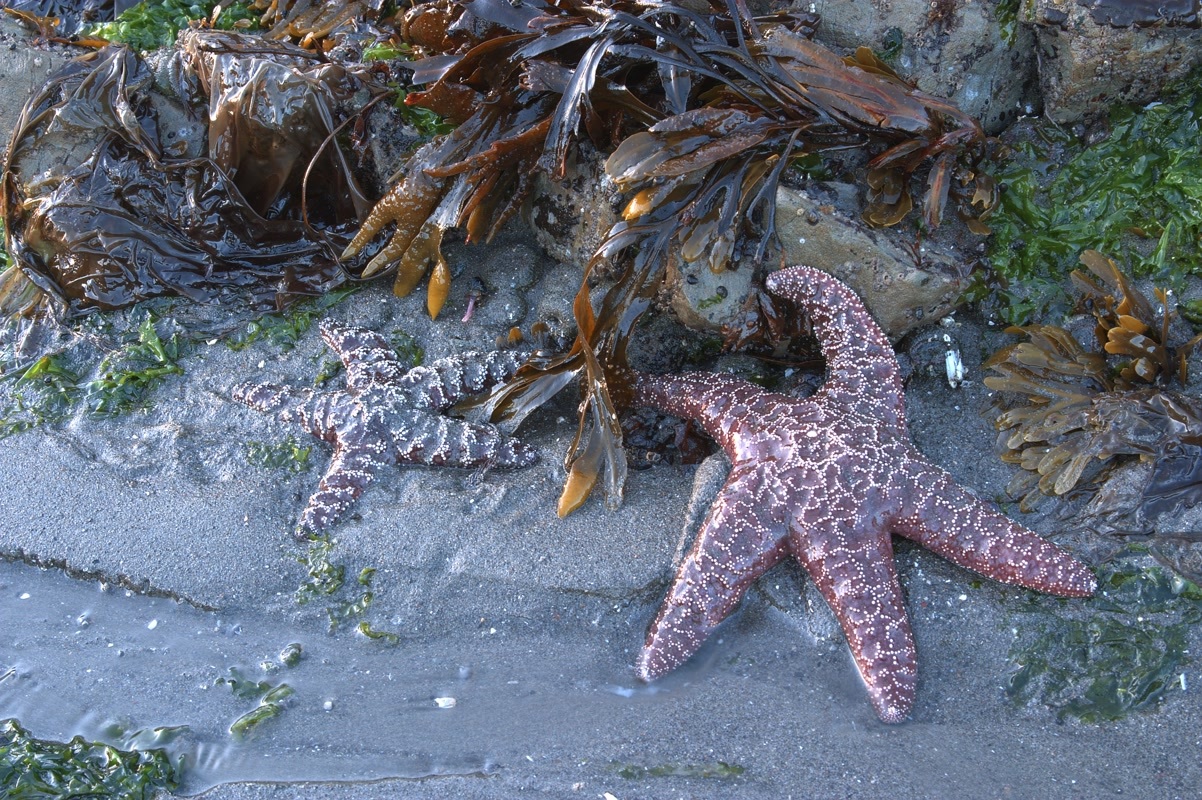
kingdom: Animalia
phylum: Echinodermata
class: Asteroidea
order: Forcipulatida
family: Asteriidae
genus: Pisaster
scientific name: Pisaster ochraceus
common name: Ochre stars
